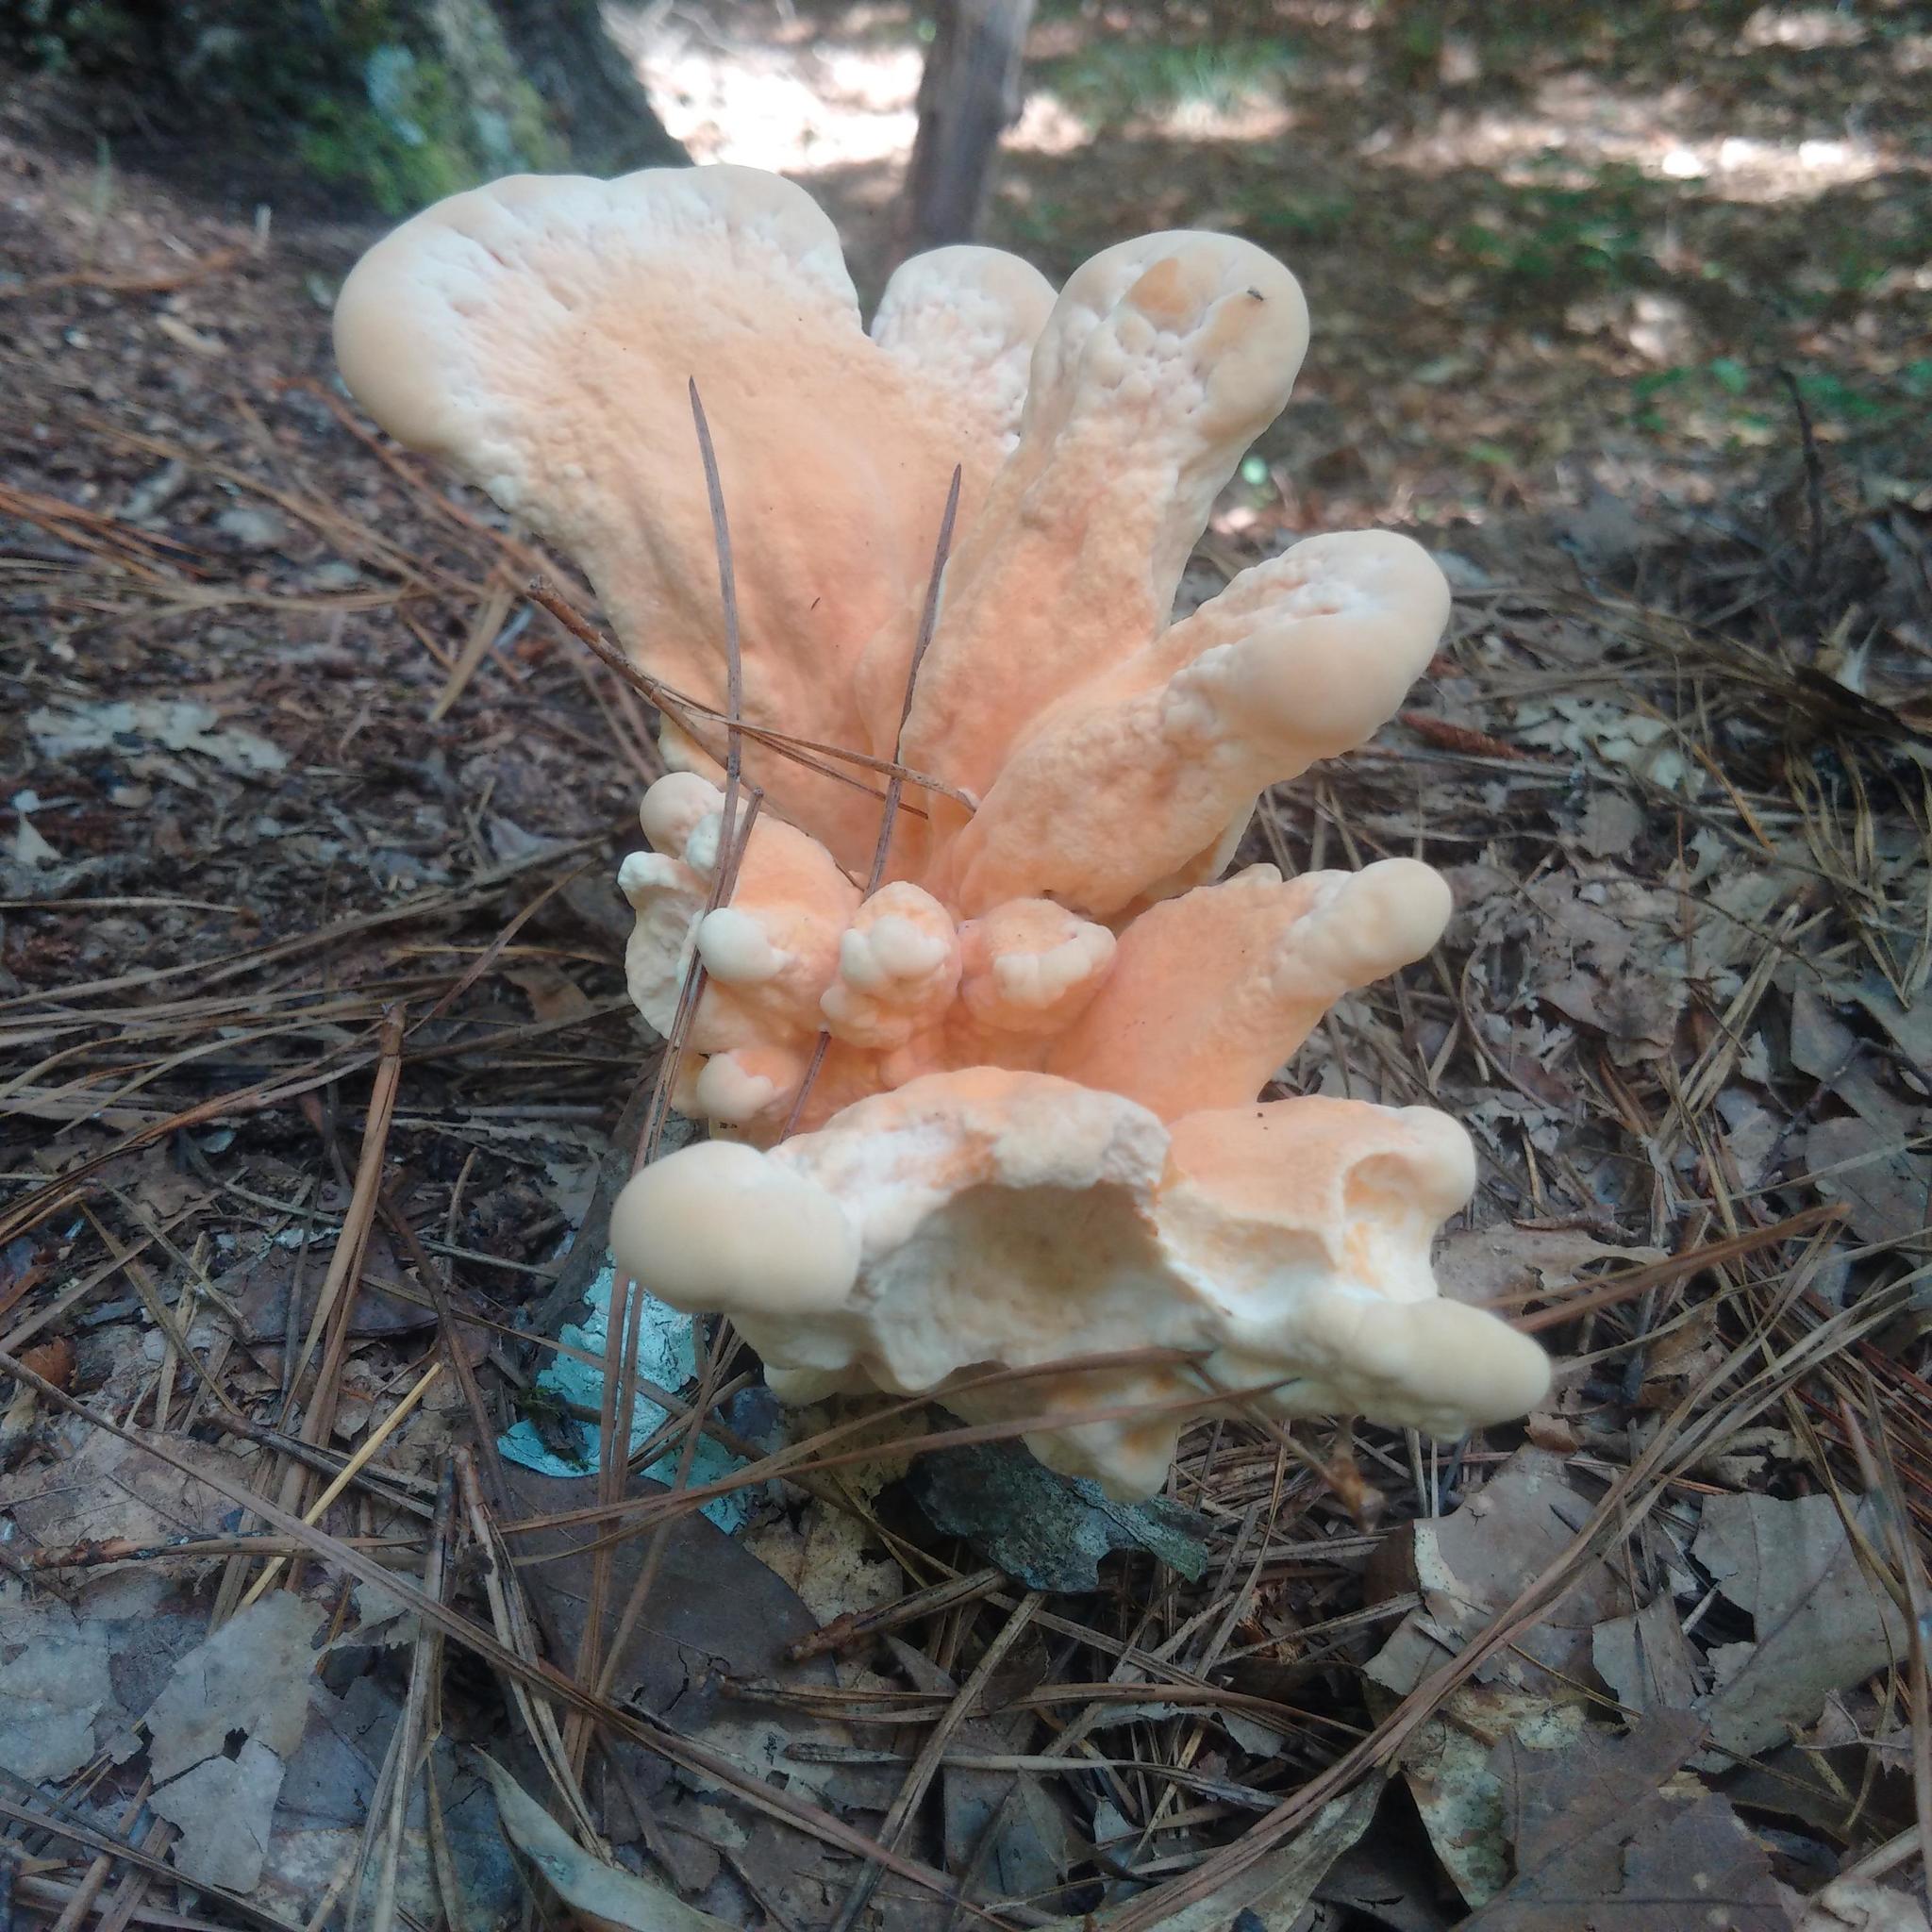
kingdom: Fungi
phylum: Basidiomycota
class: Agaricomycetes
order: Polyporales
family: Laetiporaceae
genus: Laetiporus
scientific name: Laetiporus sulphureus
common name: Chicken of the woods
